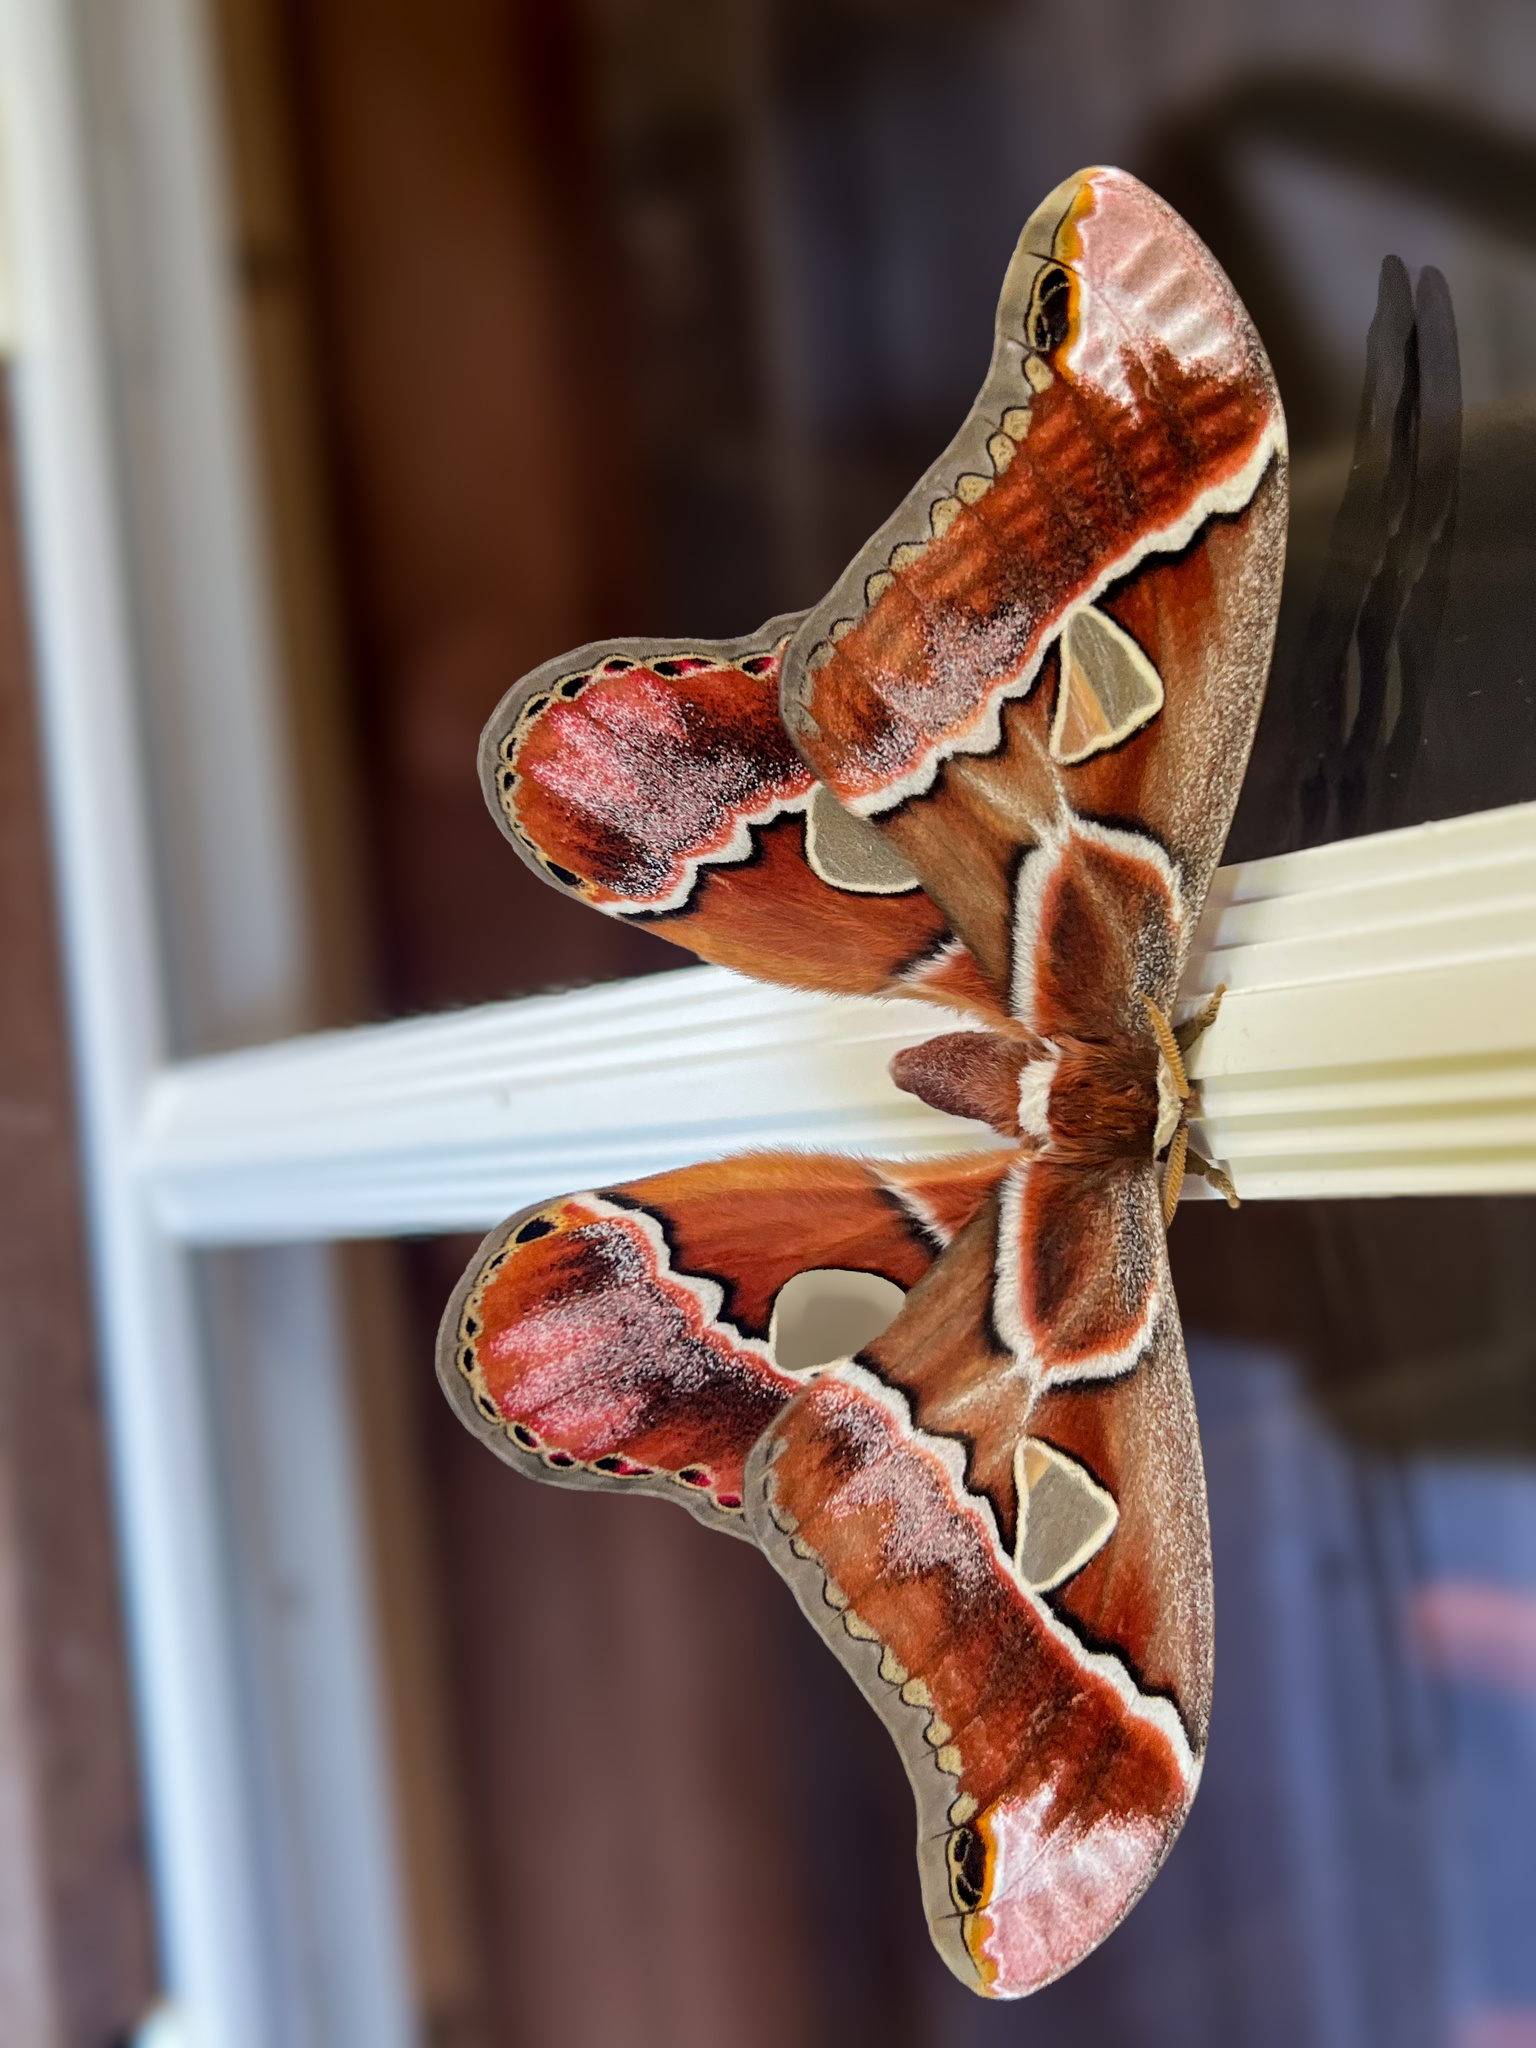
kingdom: Animalia
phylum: Arthropoda
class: Insecta
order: Lepidoptera
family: Saturniidae
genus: Rothschildia
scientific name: Rothschildia lebeau
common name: Lebeau's rothschildia
